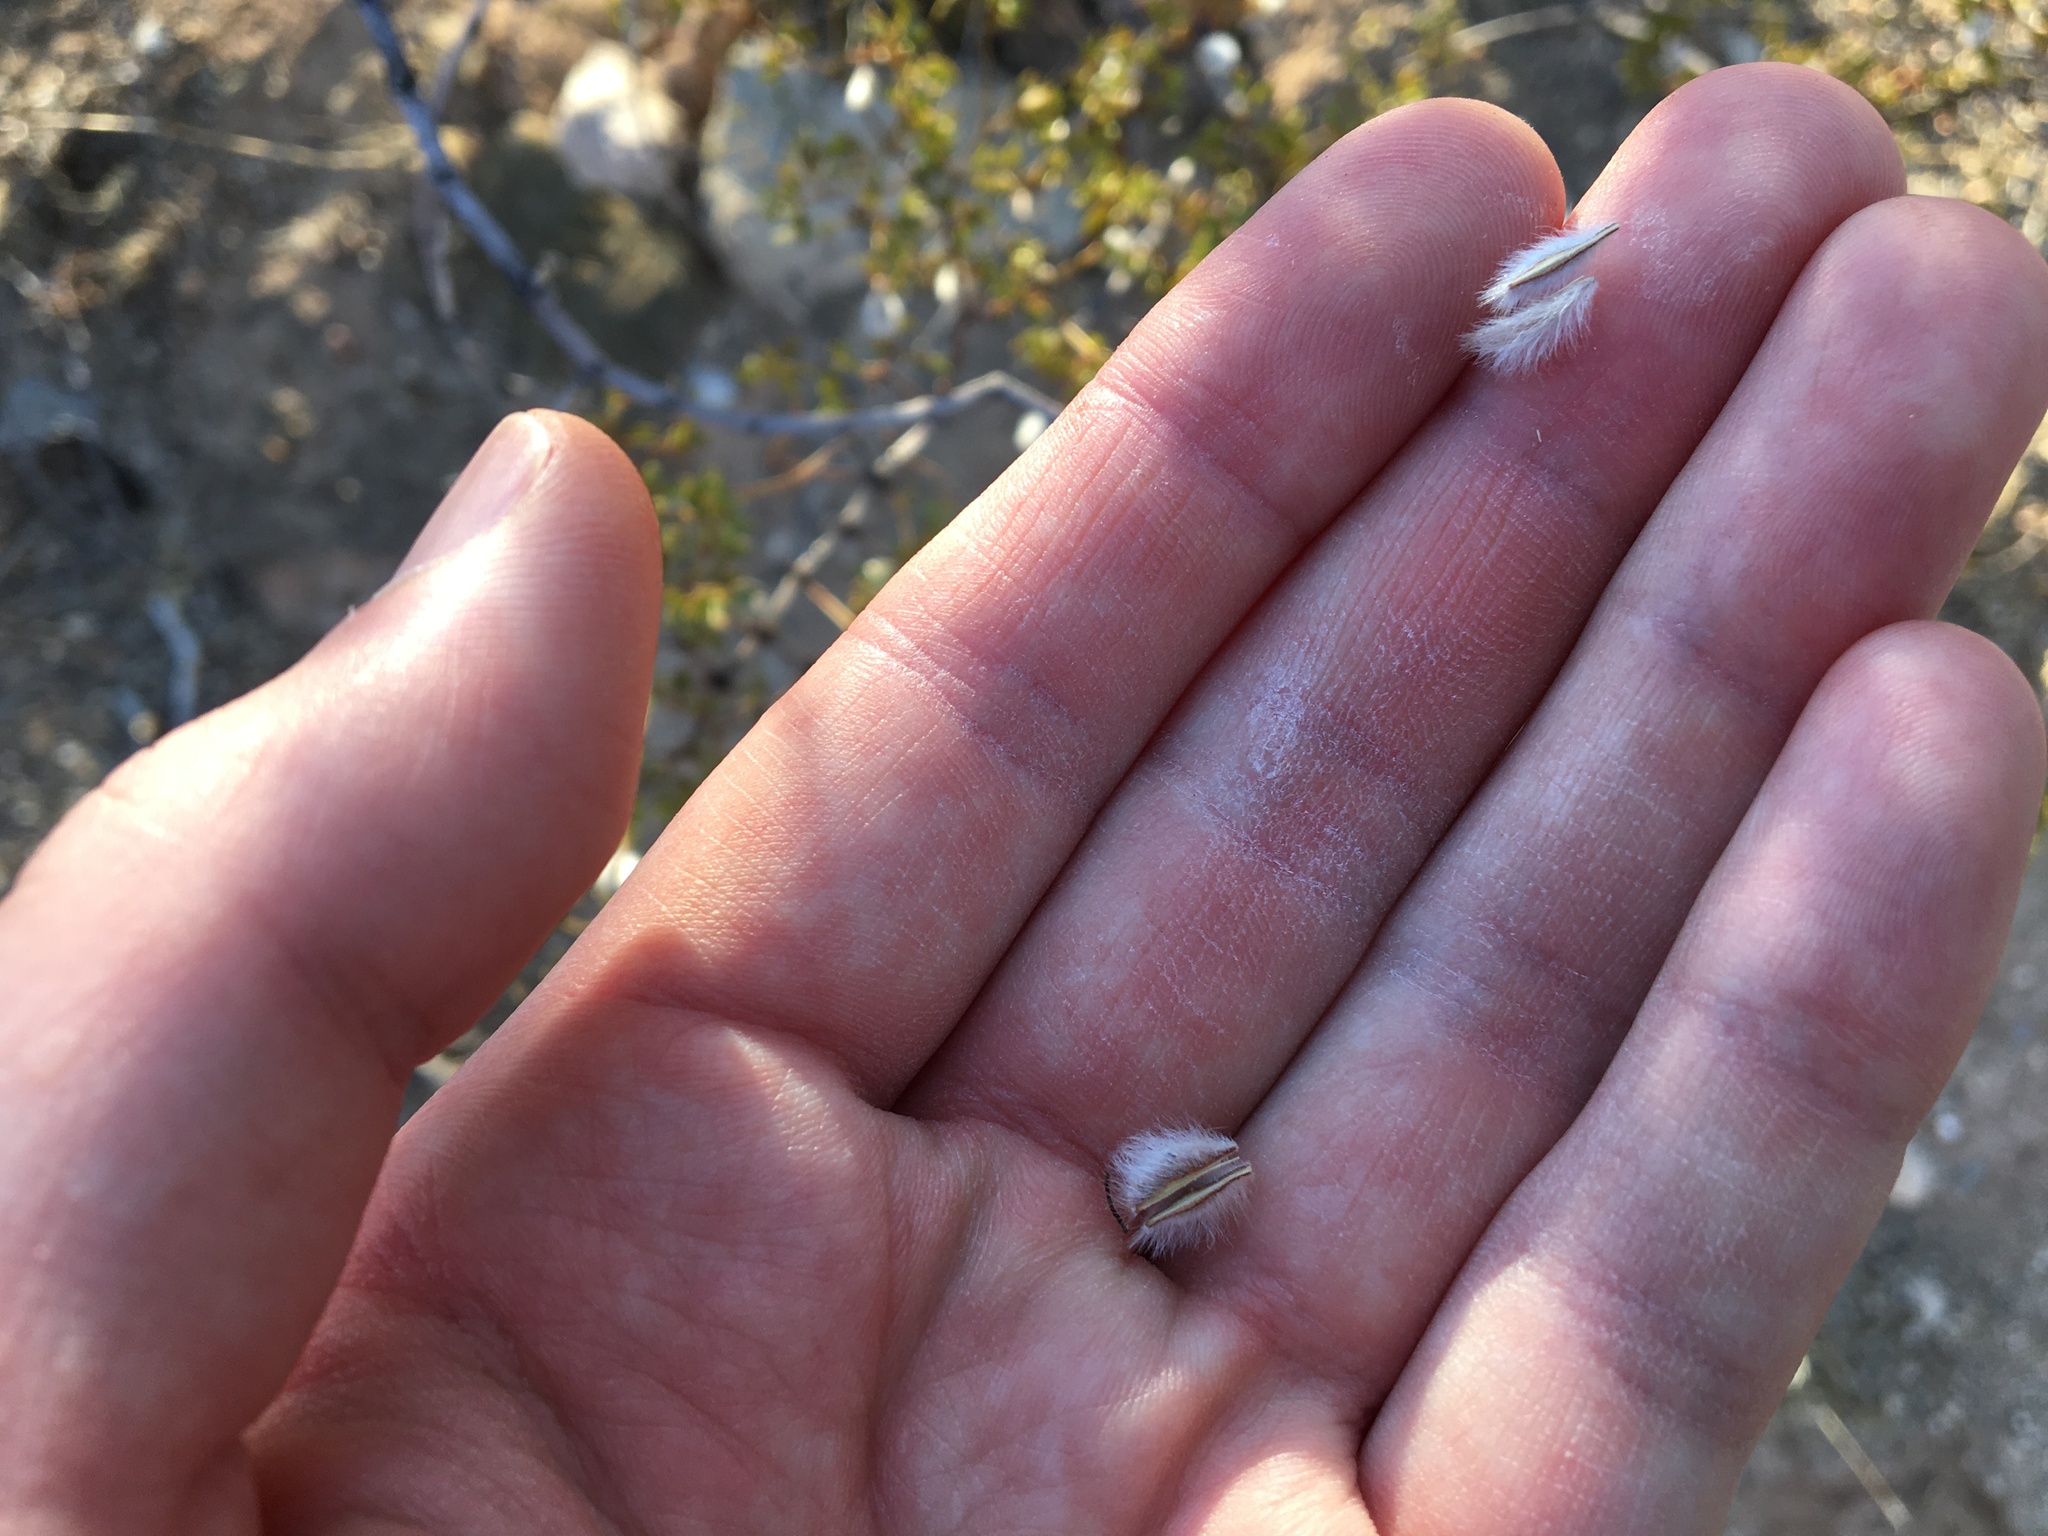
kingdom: Plantae
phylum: Tracheophyta
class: Magnoliopsida
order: Zygophyllales
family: Zygophyllaceae
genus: Larrea
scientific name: Larrea tridentata
